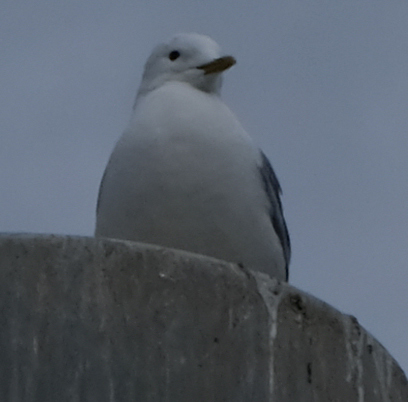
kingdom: Animalia
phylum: Chordata
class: Aves
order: Charadriiformes
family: Laridae
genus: Larus
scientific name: Larus brachyrhynchus
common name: Short-billed gull
